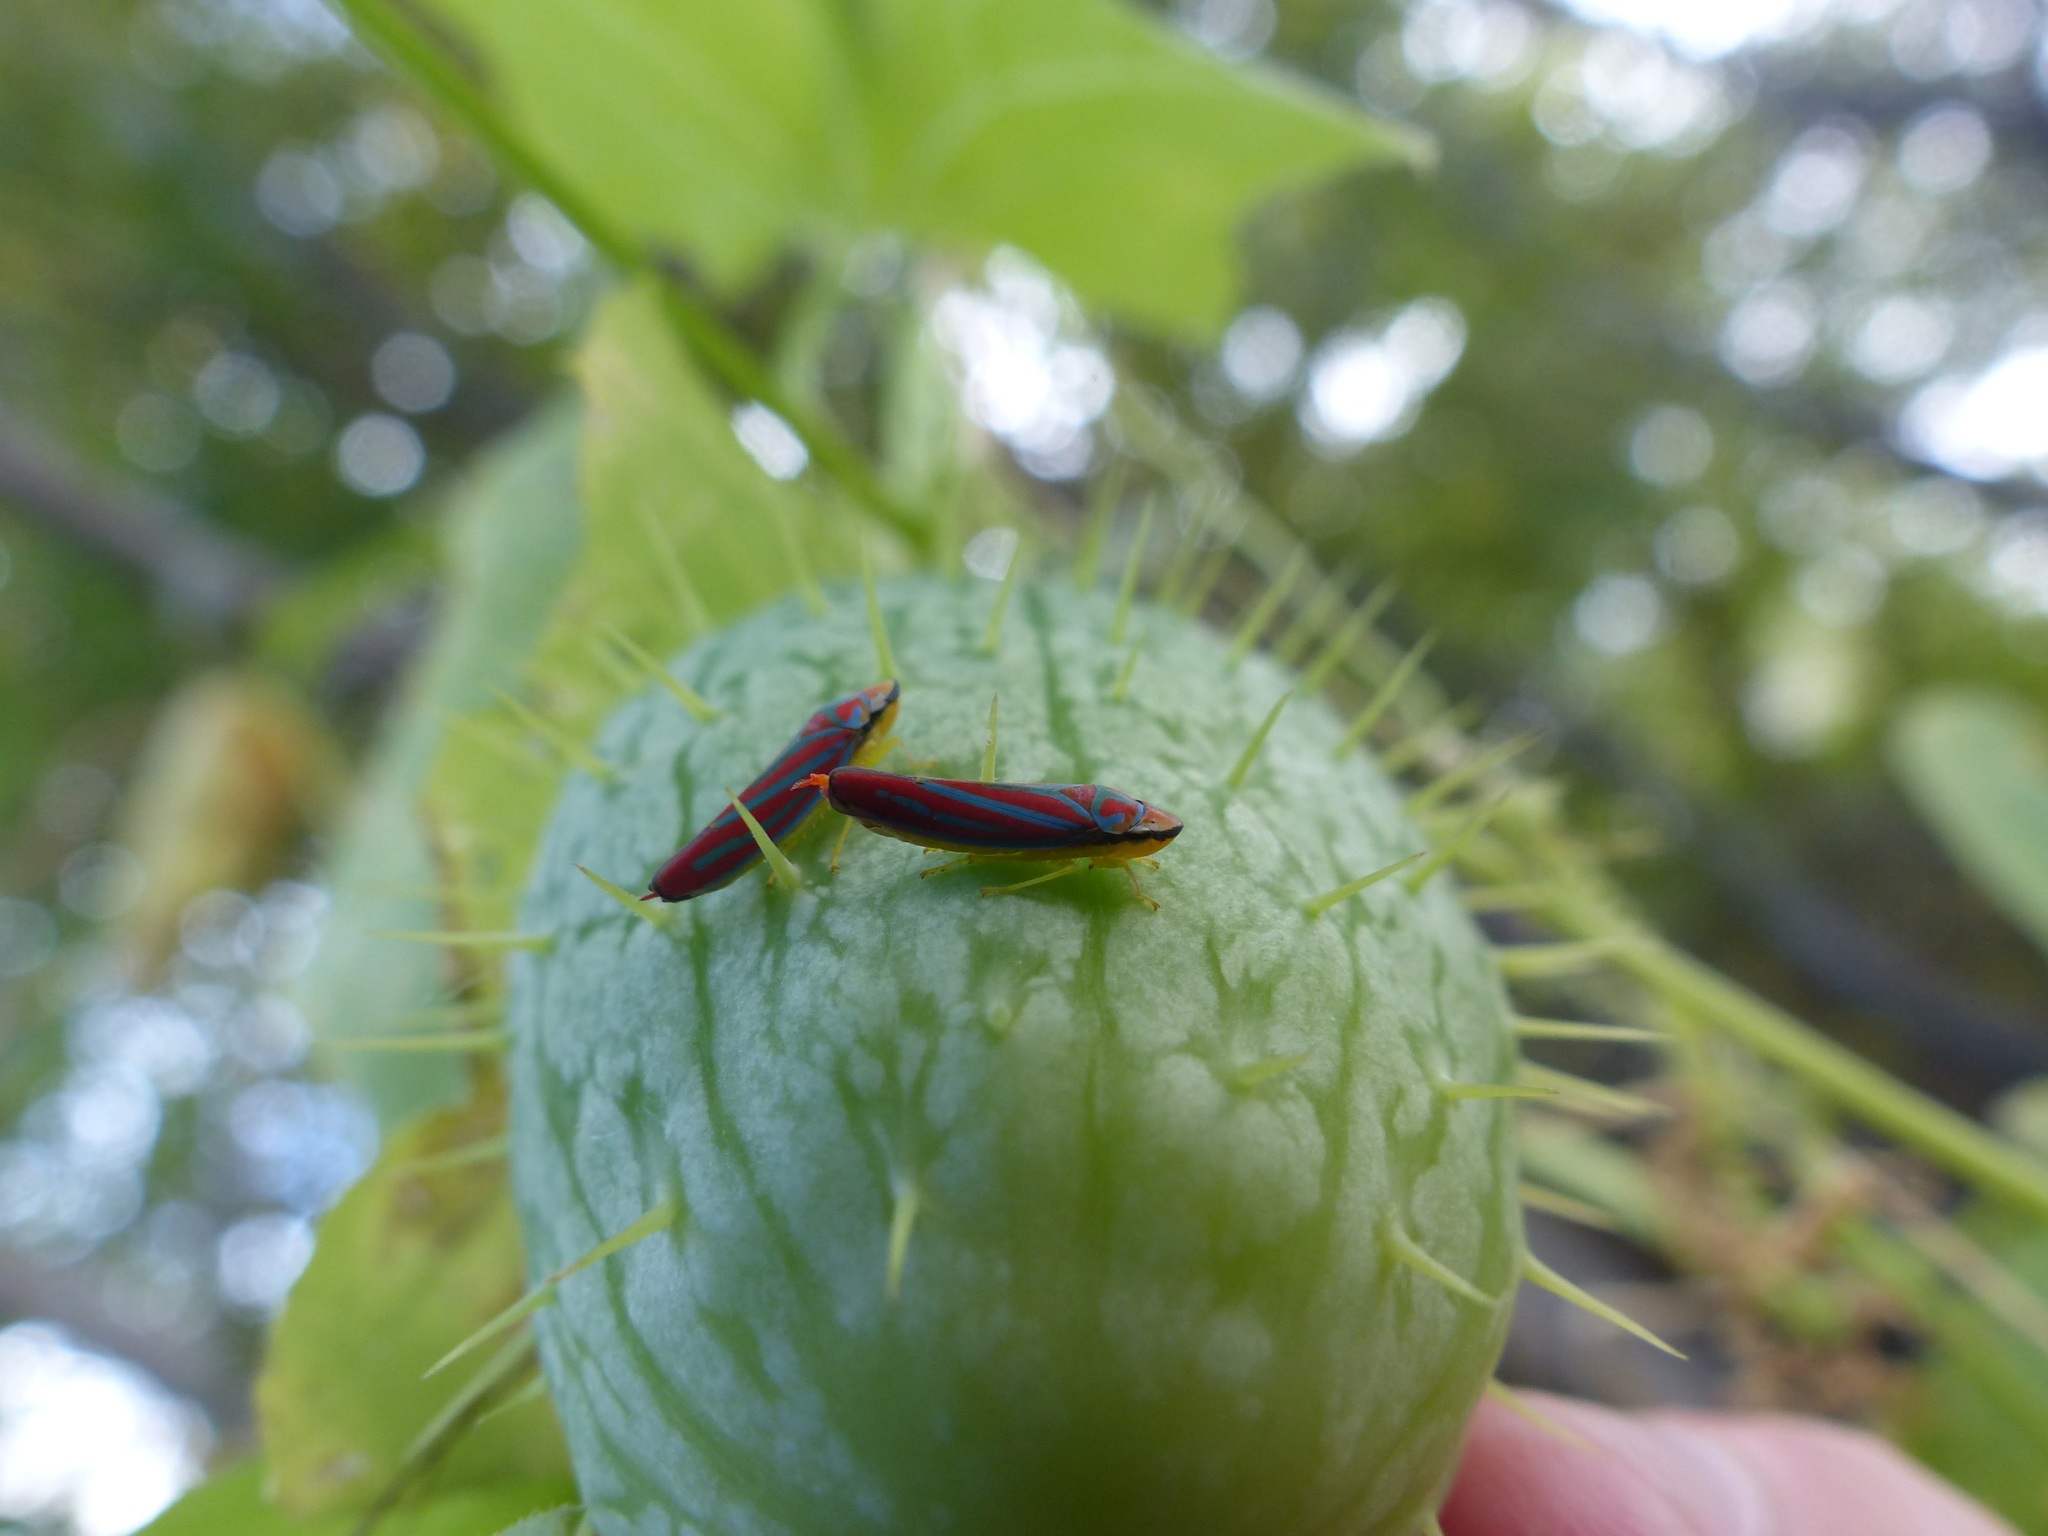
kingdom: Animalia
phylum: Arthropoda
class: Insecta
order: Hemiptera
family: Cicadellidae
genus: Graphocephala
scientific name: Graphocephala coccinea
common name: Candy-striped leafhopper
